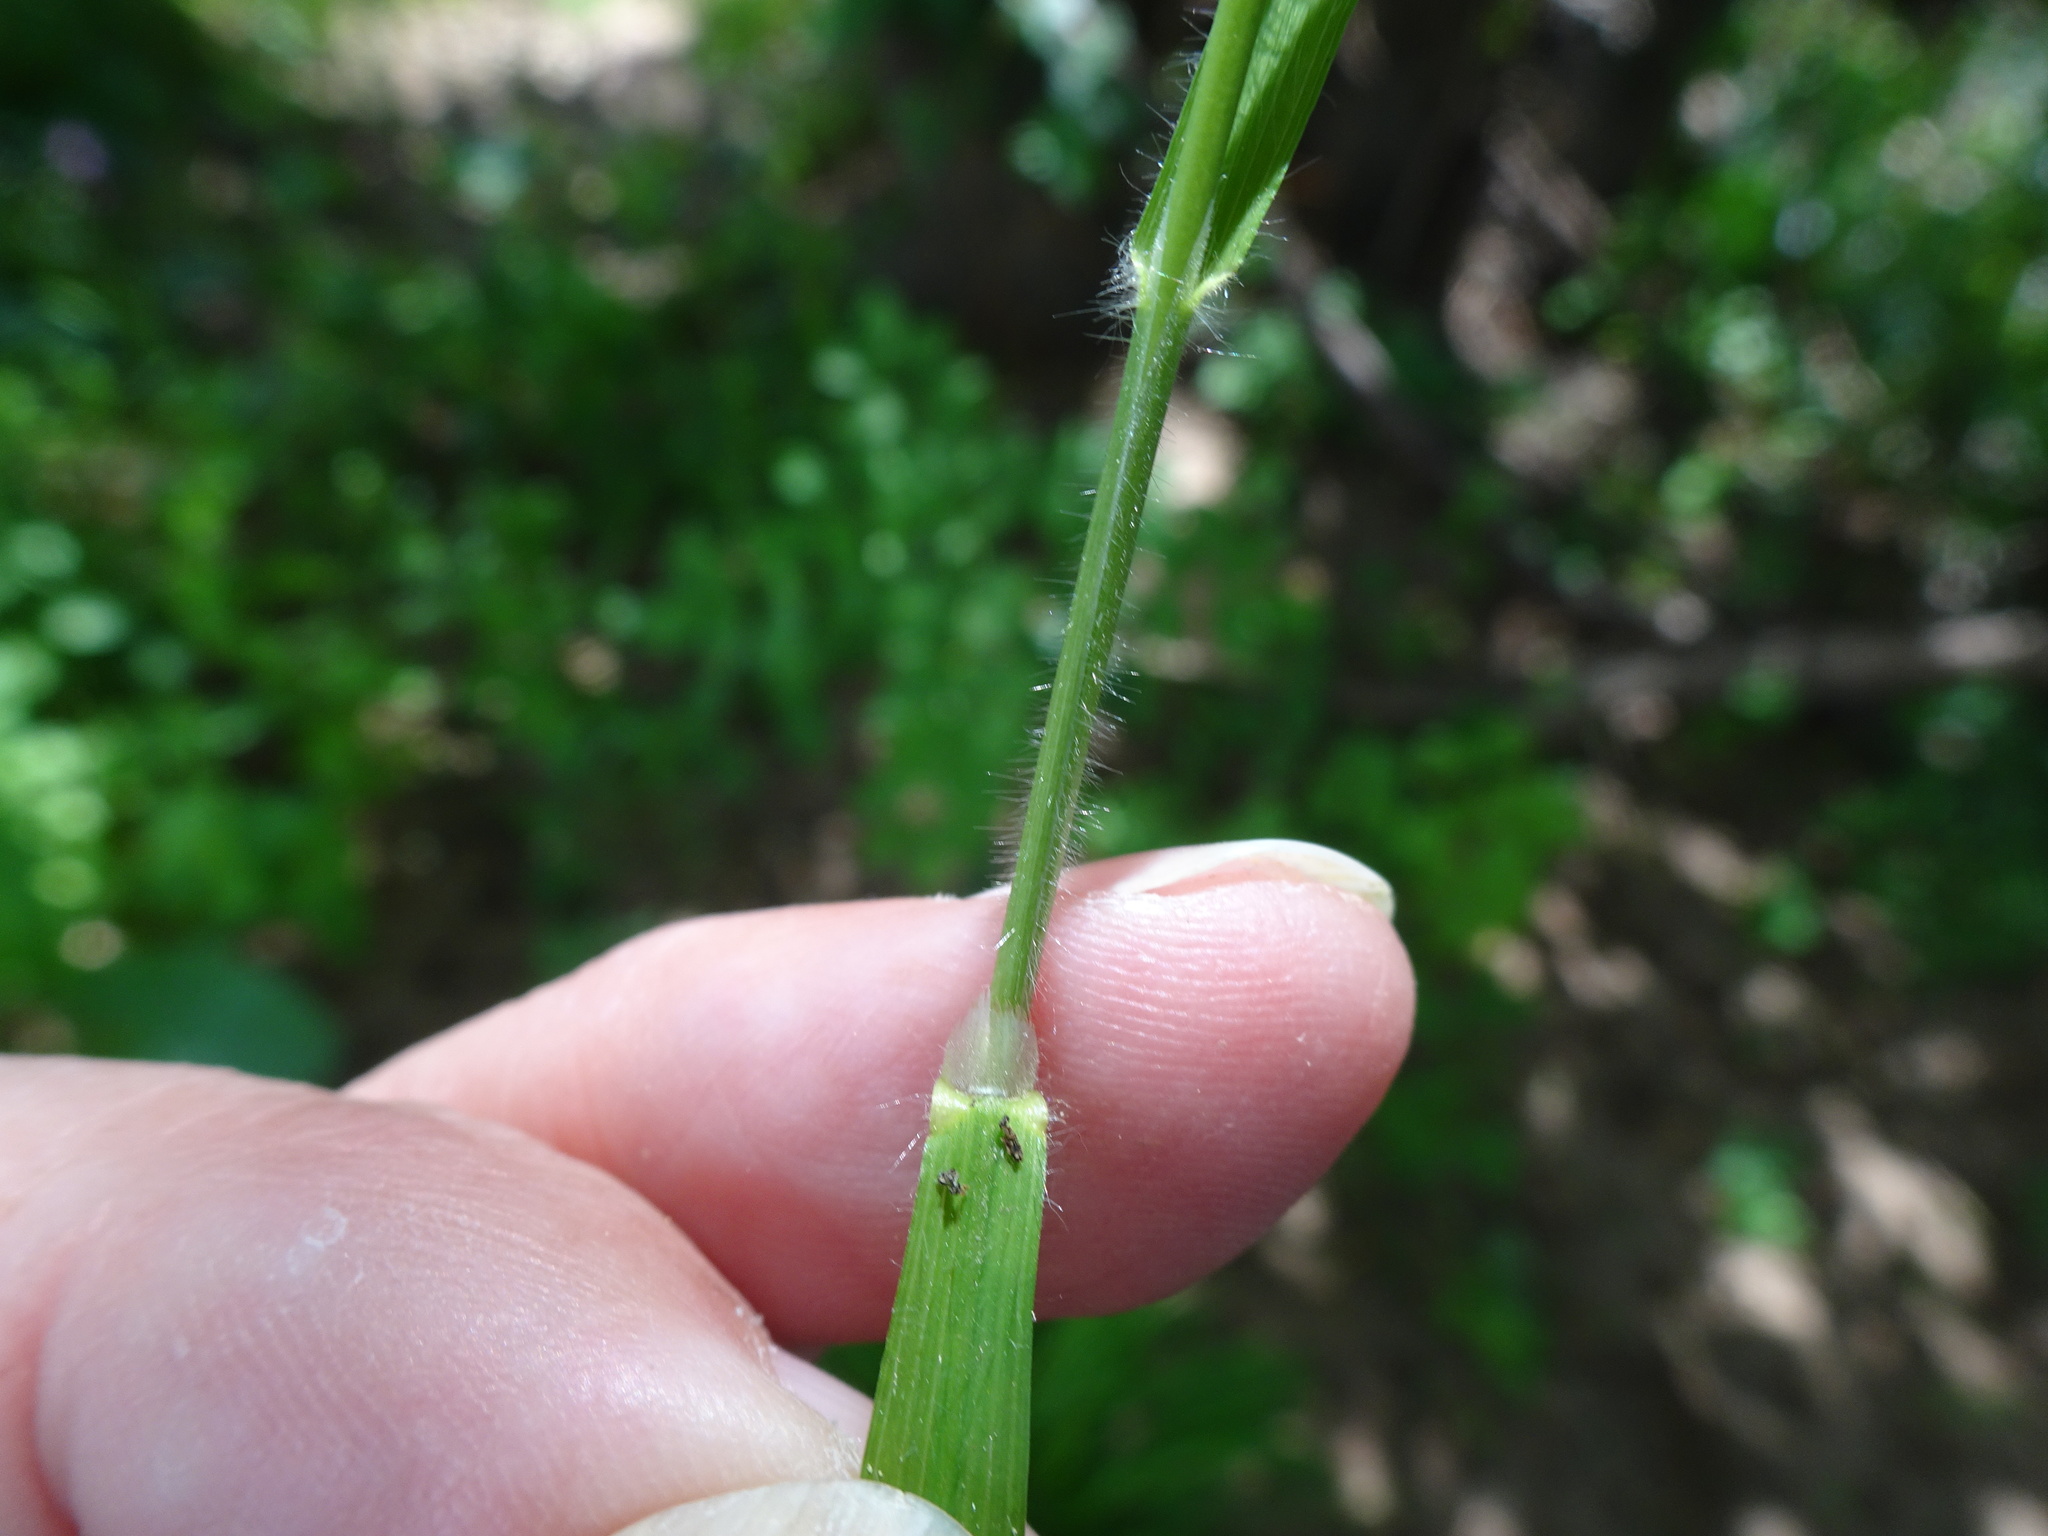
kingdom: Plantae
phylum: Tracheophyta
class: Liliopsida
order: Poales
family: Poaceae
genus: Brachypodium
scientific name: Brachypodium sylvaticum
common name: False-brome
